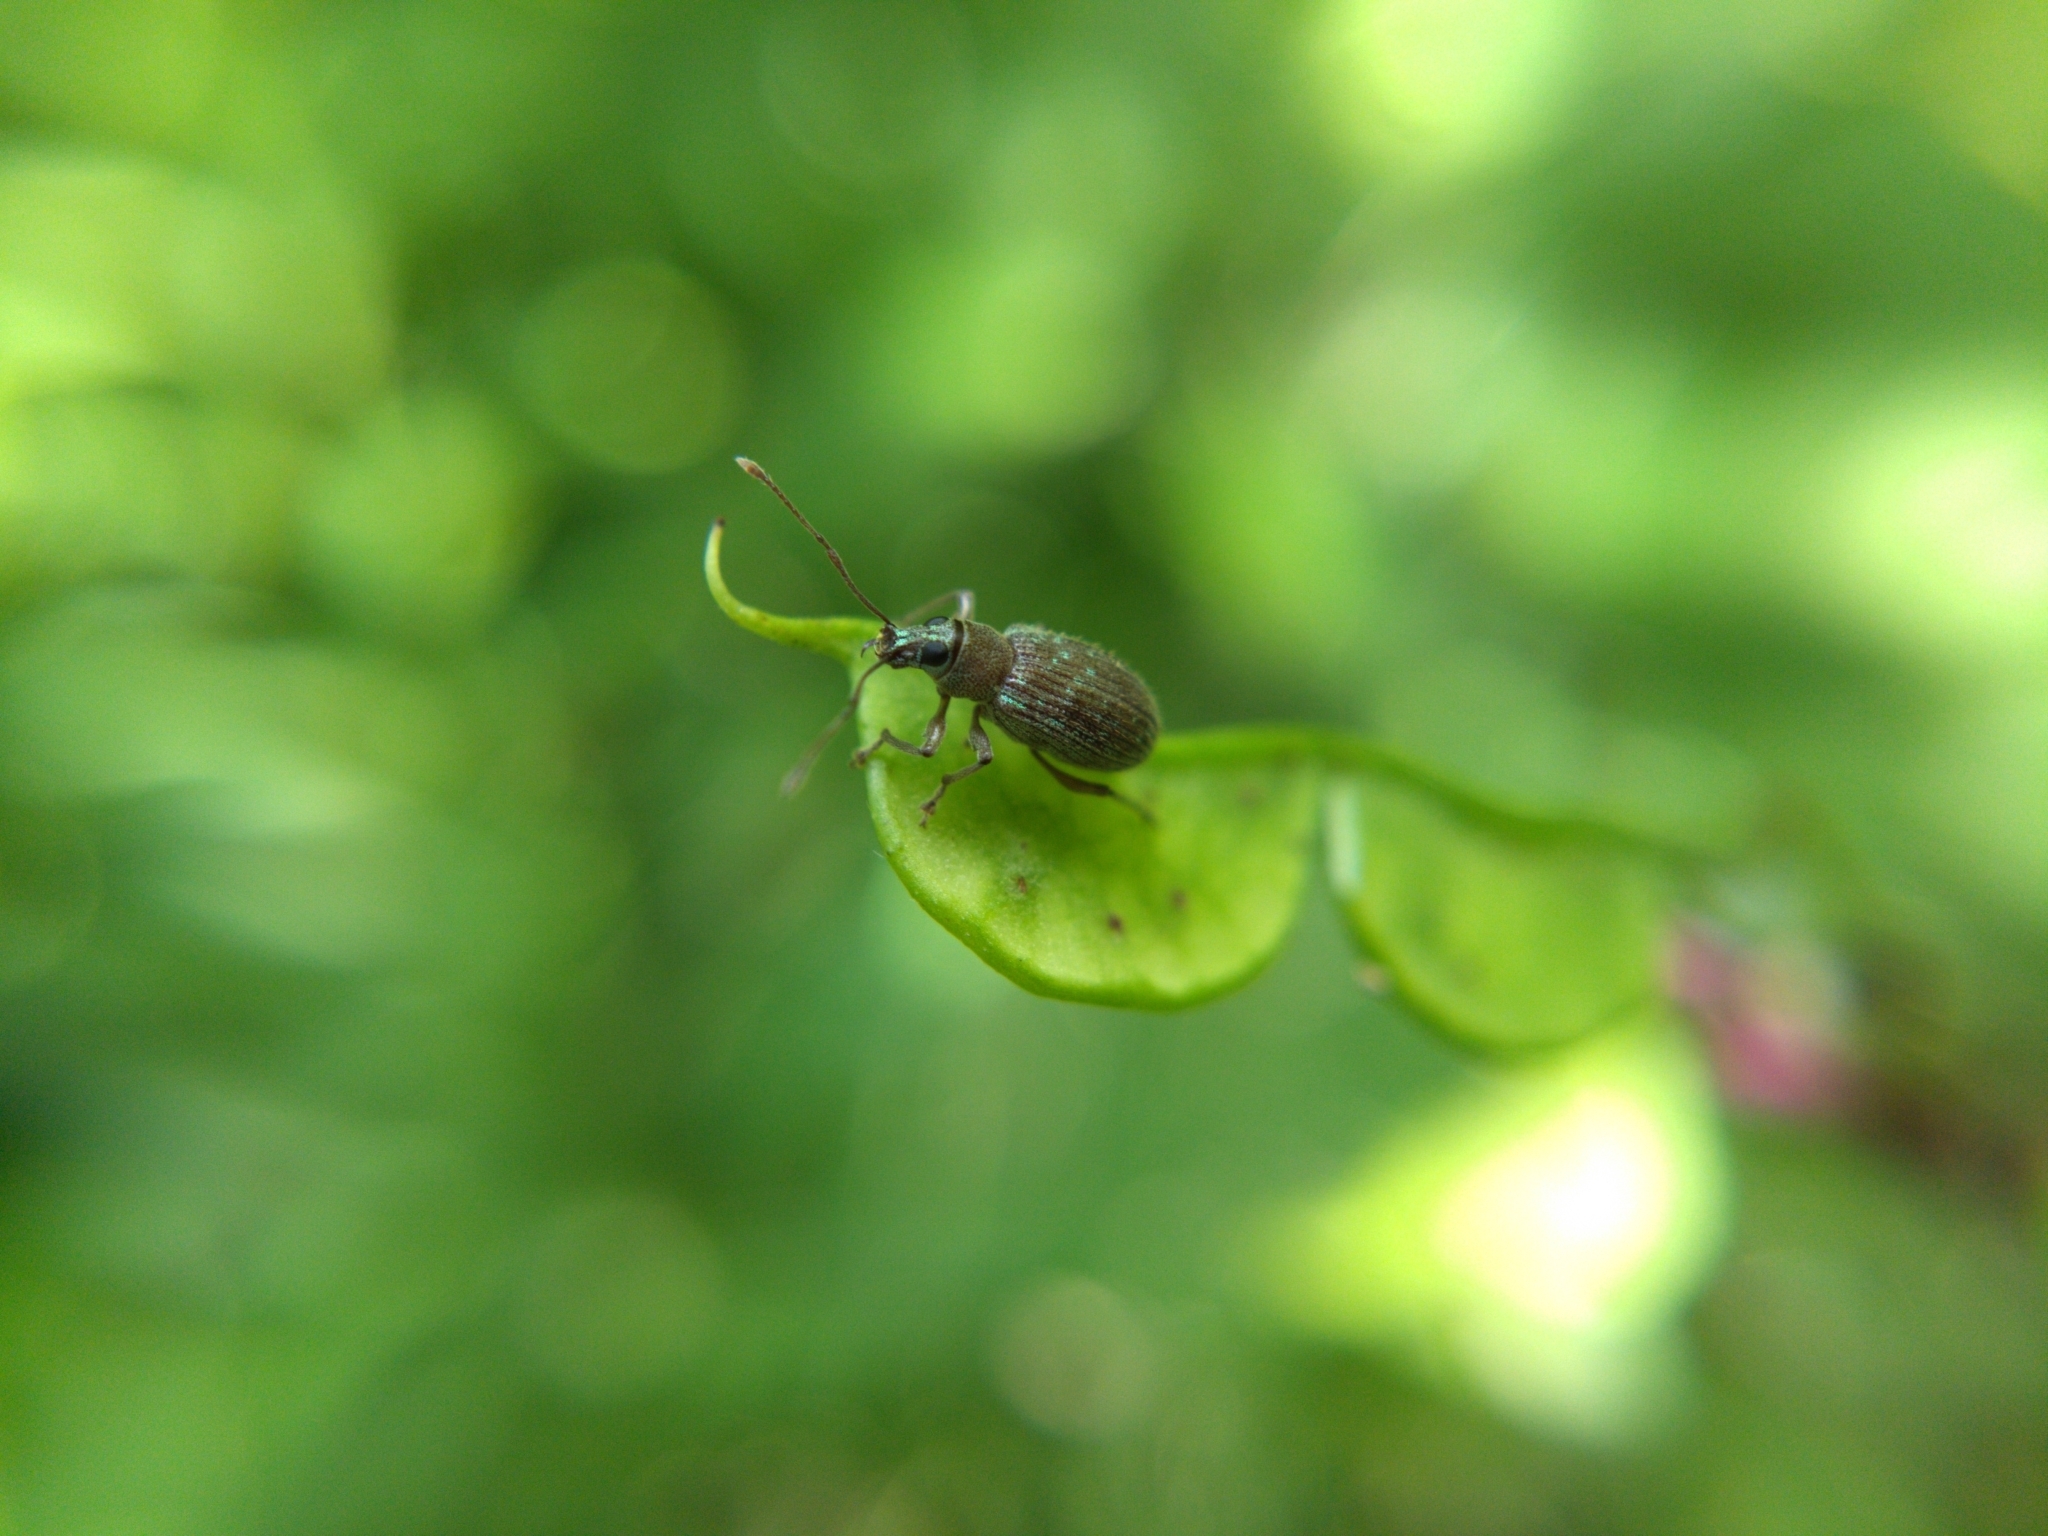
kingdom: Animalia
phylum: Arthropoda
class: Insecta
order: Coleoptera
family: Curculionidae
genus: Cyrtepistomus
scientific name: Cyrtepistomus castaneus
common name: Weevil
